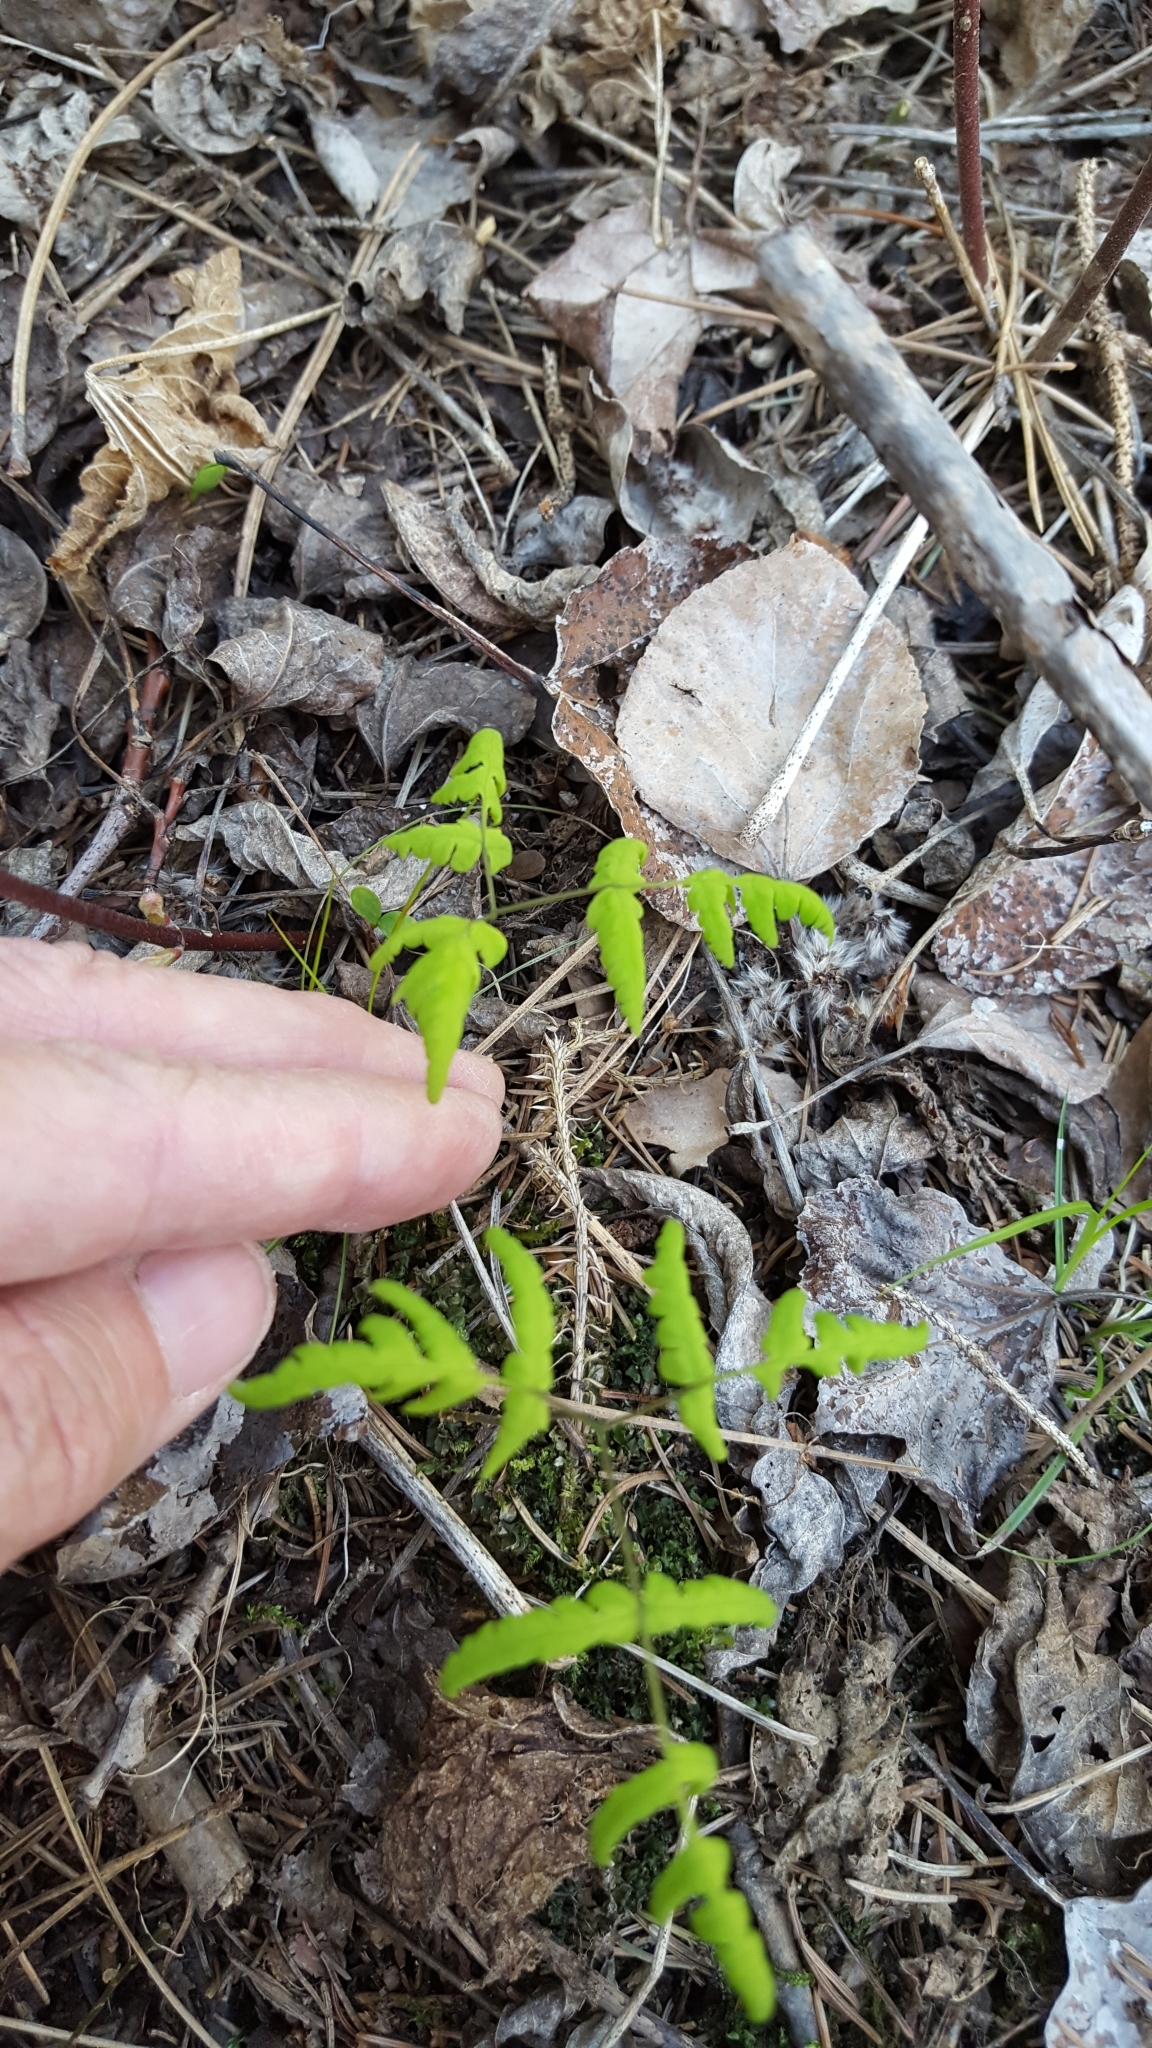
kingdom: Plantae
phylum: Tracheophyta
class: Polypodiopsida
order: Polypodiales
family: Cystopteridaceae
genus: Gymnocarpium
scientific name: Gymnocarpium dryopteris
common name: Oak fern
